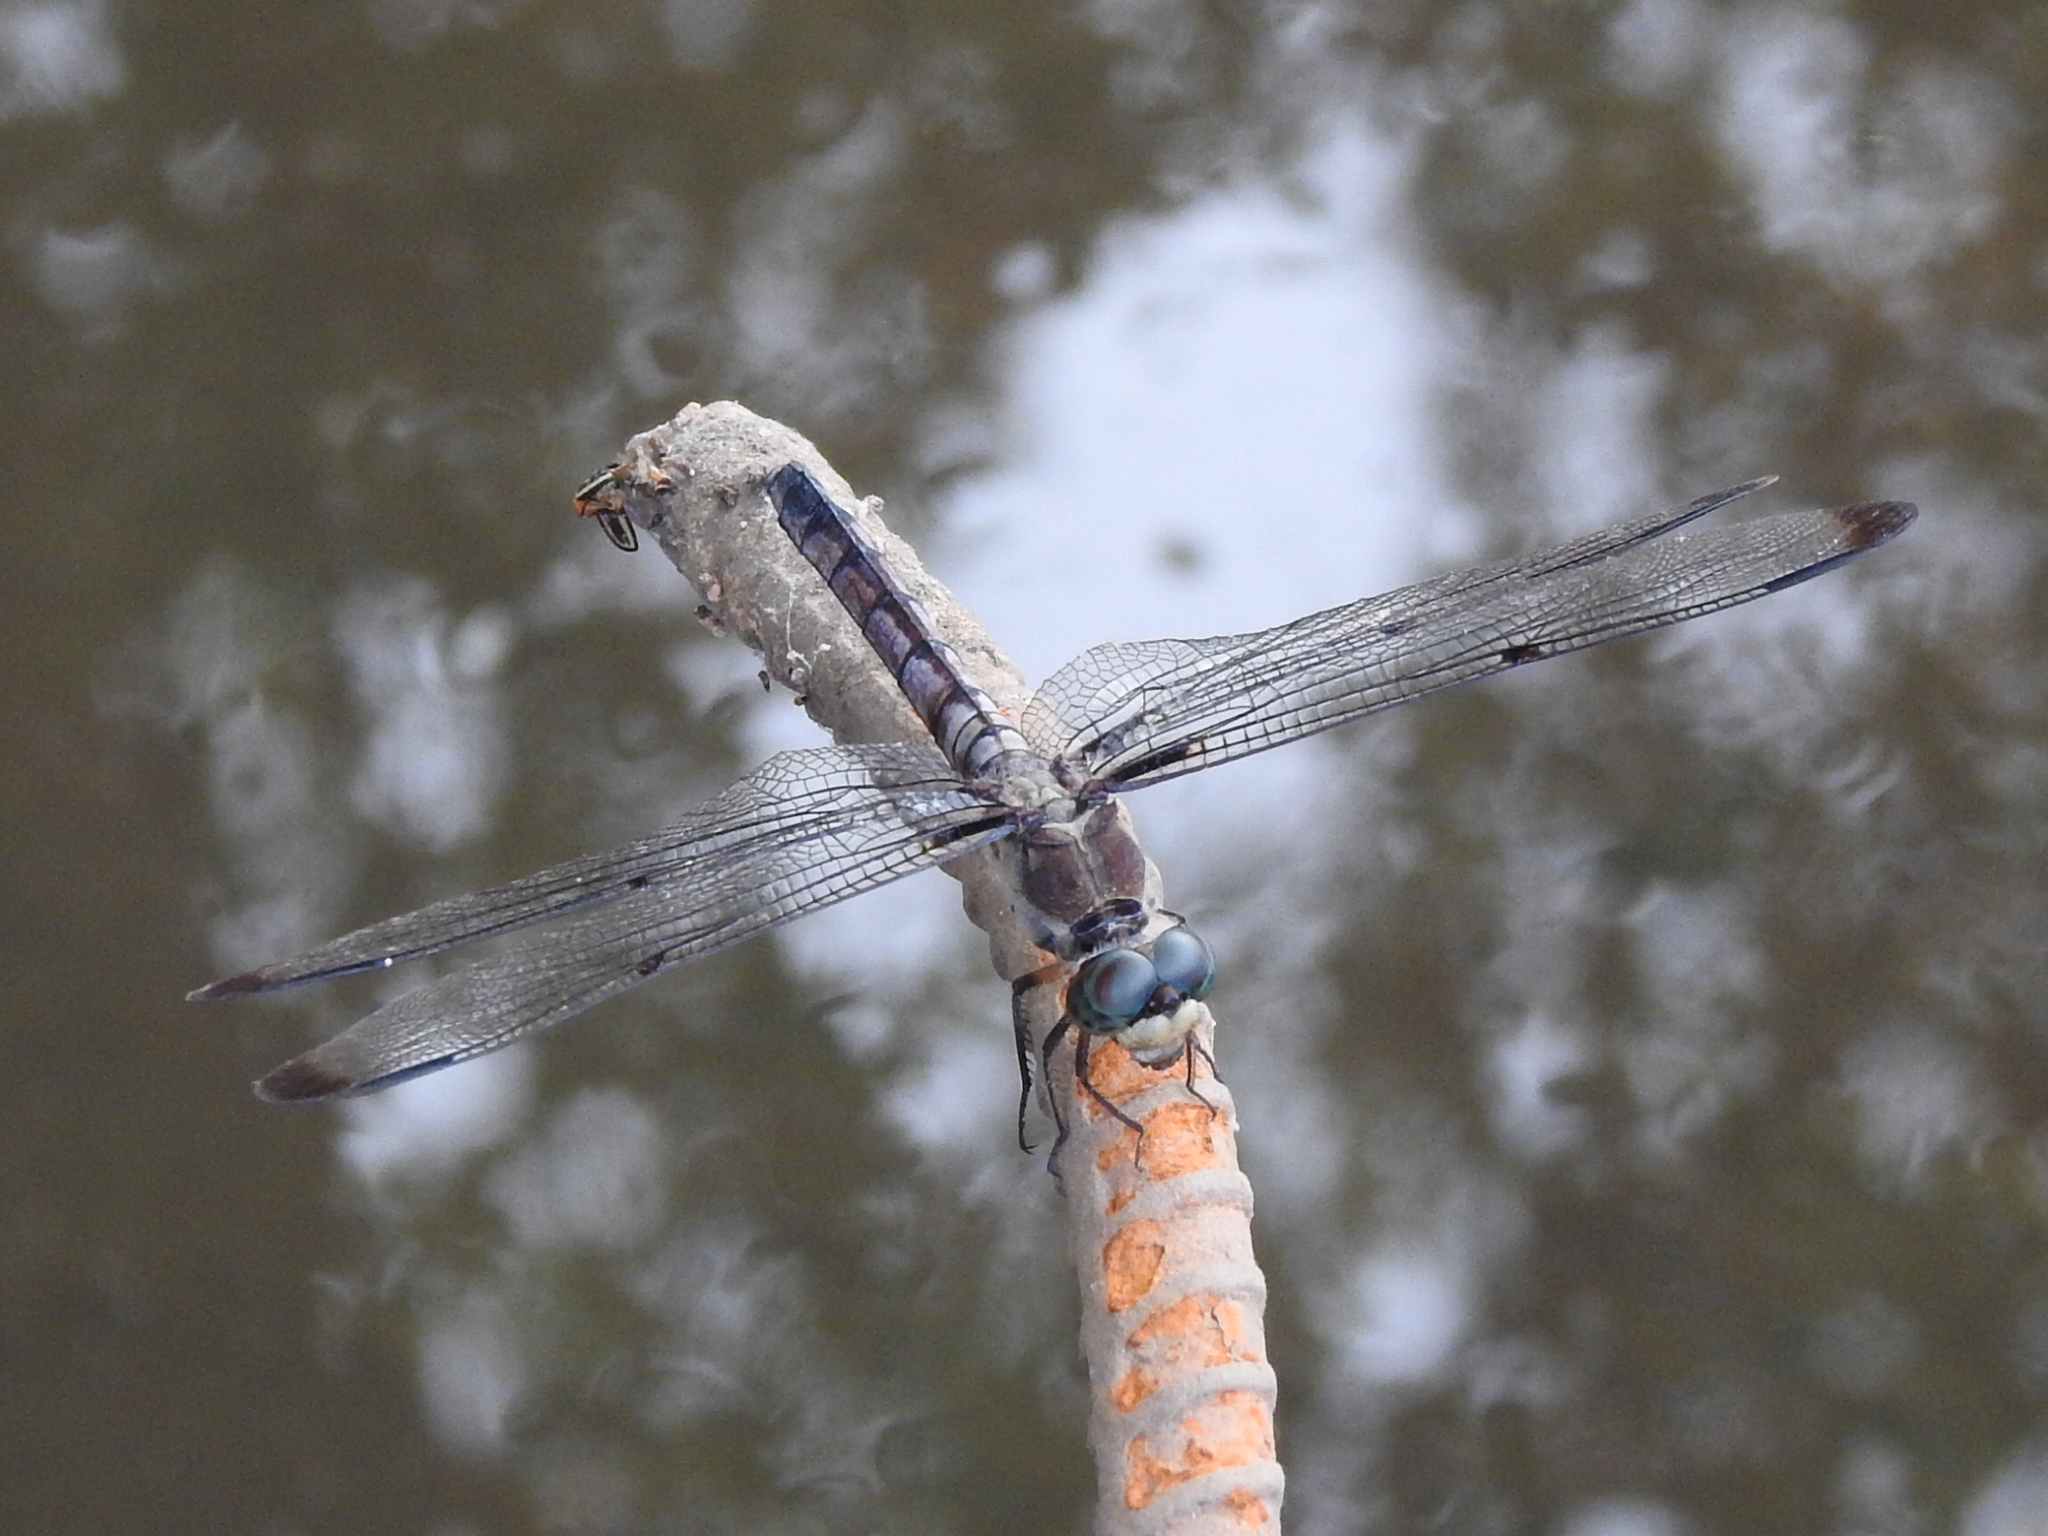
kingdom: Animalia
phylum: Arthropoda
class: Insecta
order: Odonata
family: Libellulidae
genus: Libellula
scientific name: Libellula vibrans
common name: Great blue skimmer
